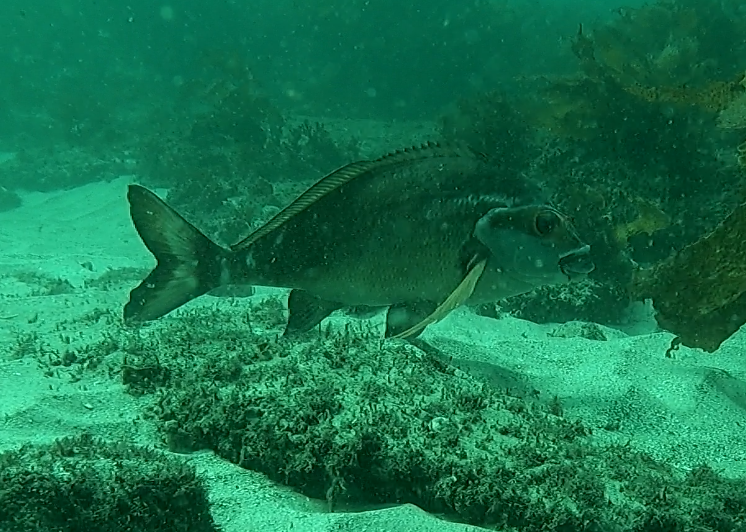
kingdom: Animalia
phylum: Chordata
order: Perciformes
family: Latridae
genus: Morwong
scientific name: Morwong fuscus
